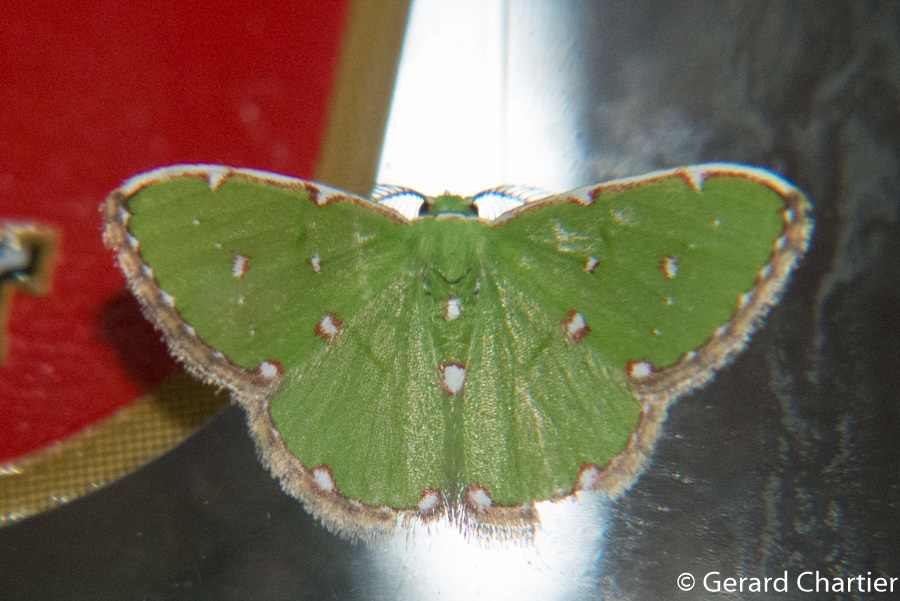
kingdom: Animalia
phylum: Arthropoda
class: Insecta
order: Lepidoptera
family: Geometridae
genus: Argyrocosma
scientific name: Argyrocosma inductaria
